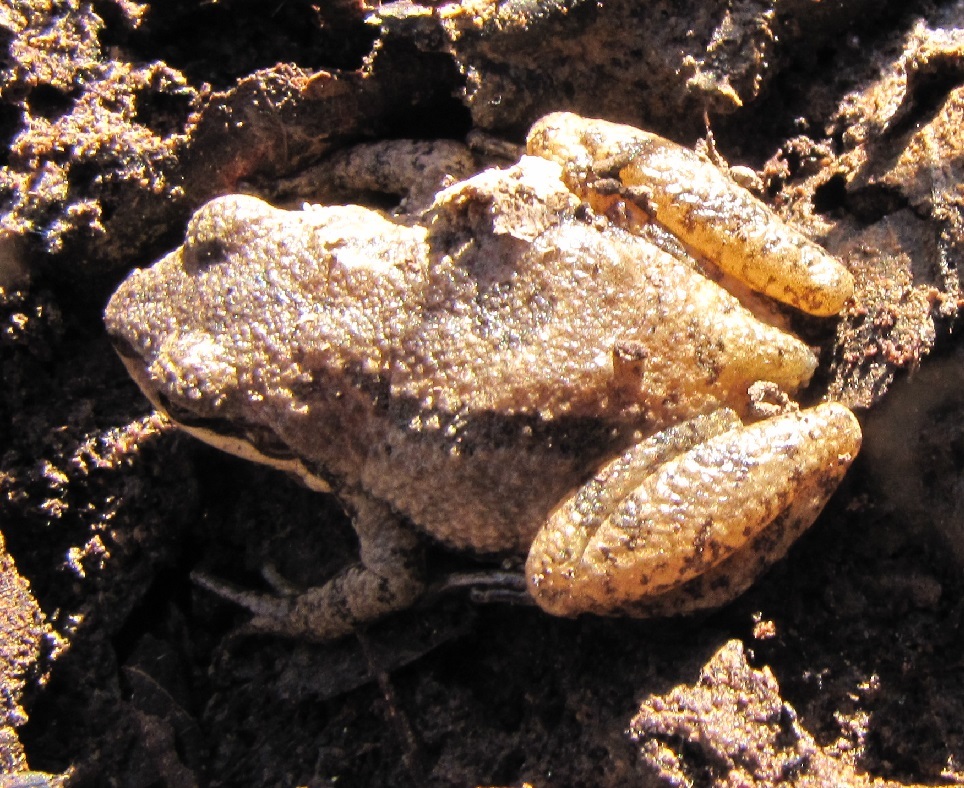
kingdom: Animalia
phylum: Chordata
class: Amphibia
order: Anura
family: Hylidae
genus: Pseudacris
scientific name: Pseudacris feriarum
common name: Upland chorus frog
